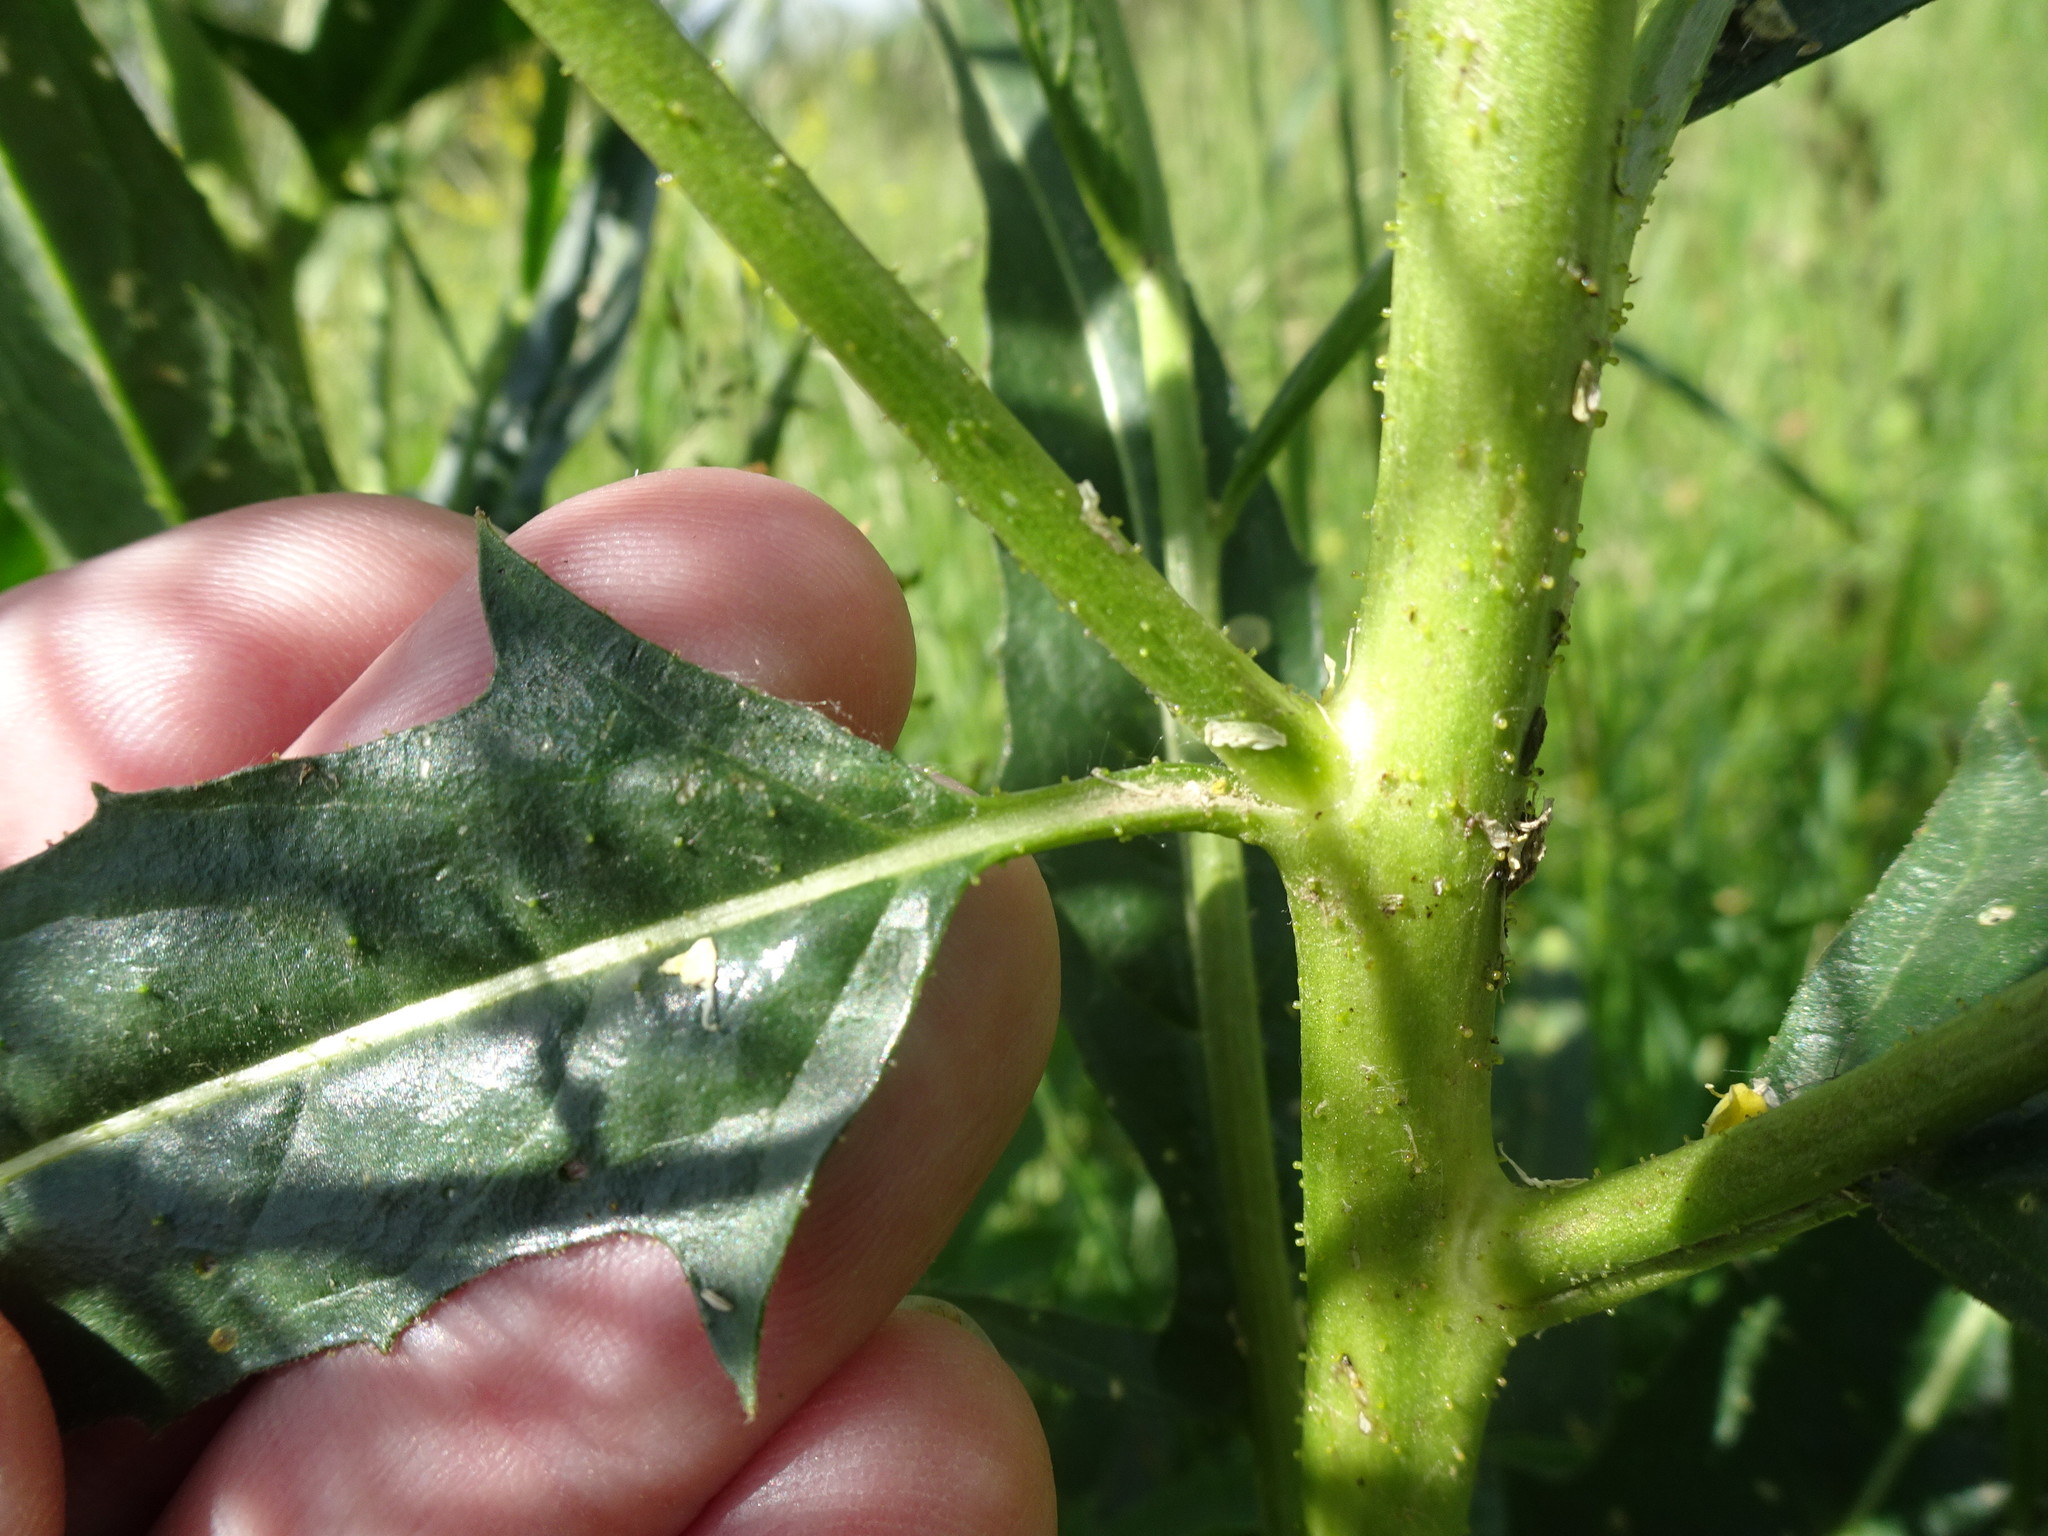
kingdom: Plantae
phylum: Tracheophyta
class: Magnoliopsida
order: Brassicales
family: Brassicaceae
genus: Bunias
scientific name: Bunias orientalis
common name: Warty-cabbage
